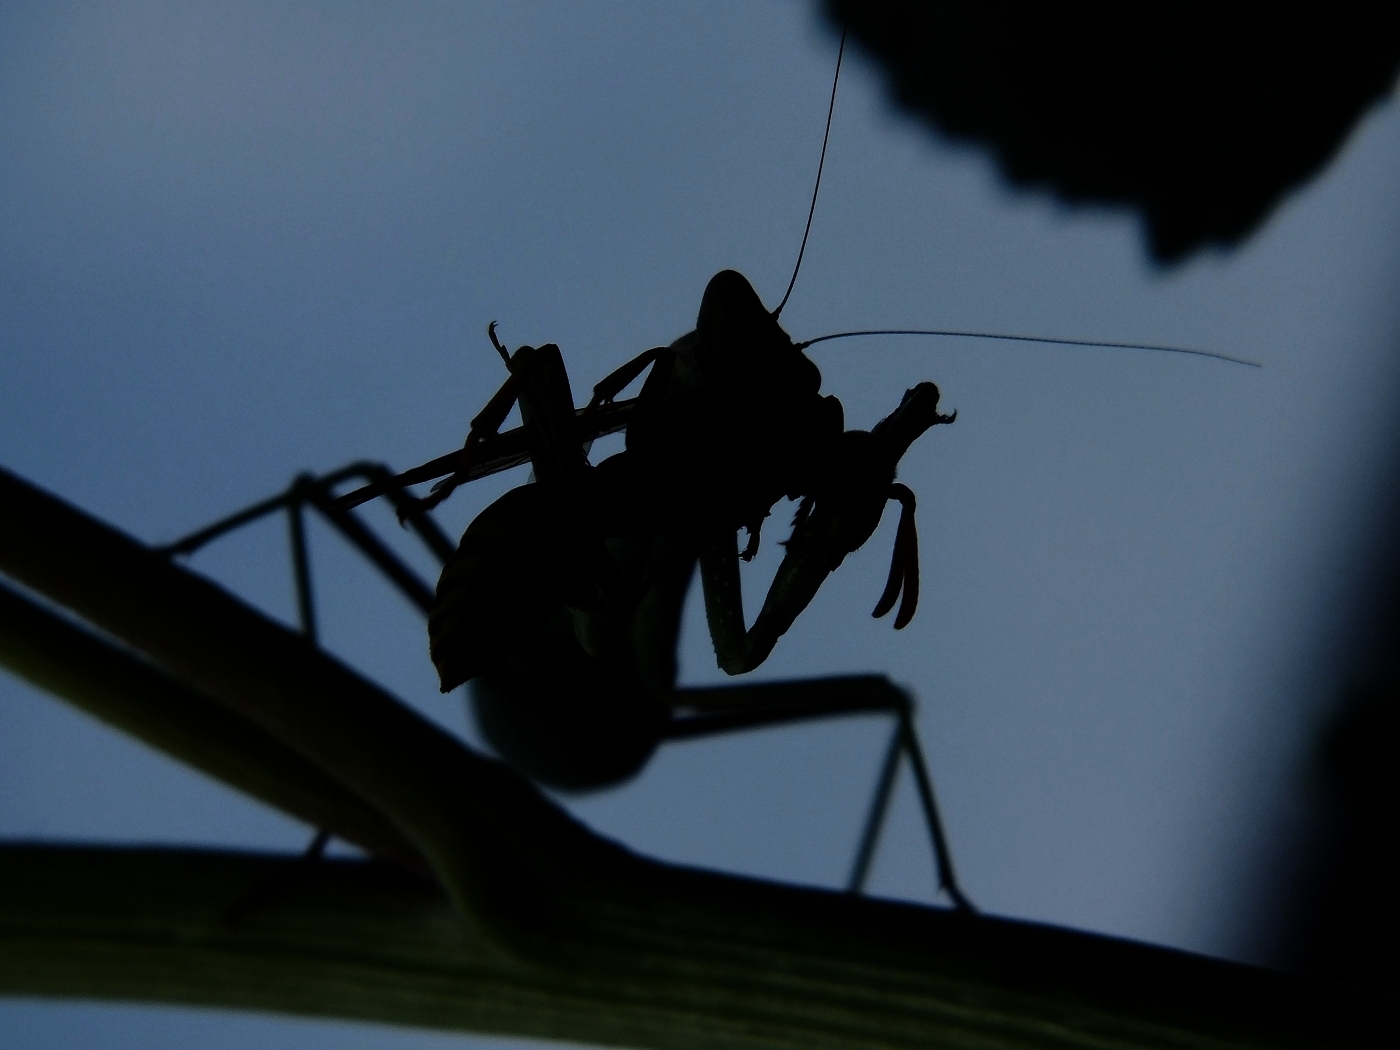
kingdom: Animalia
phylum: Arthropoda
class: Insecta
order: Mantodea
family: Mantidae
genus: Mantis
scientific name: Mantis religiosa
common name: Praying mantis
